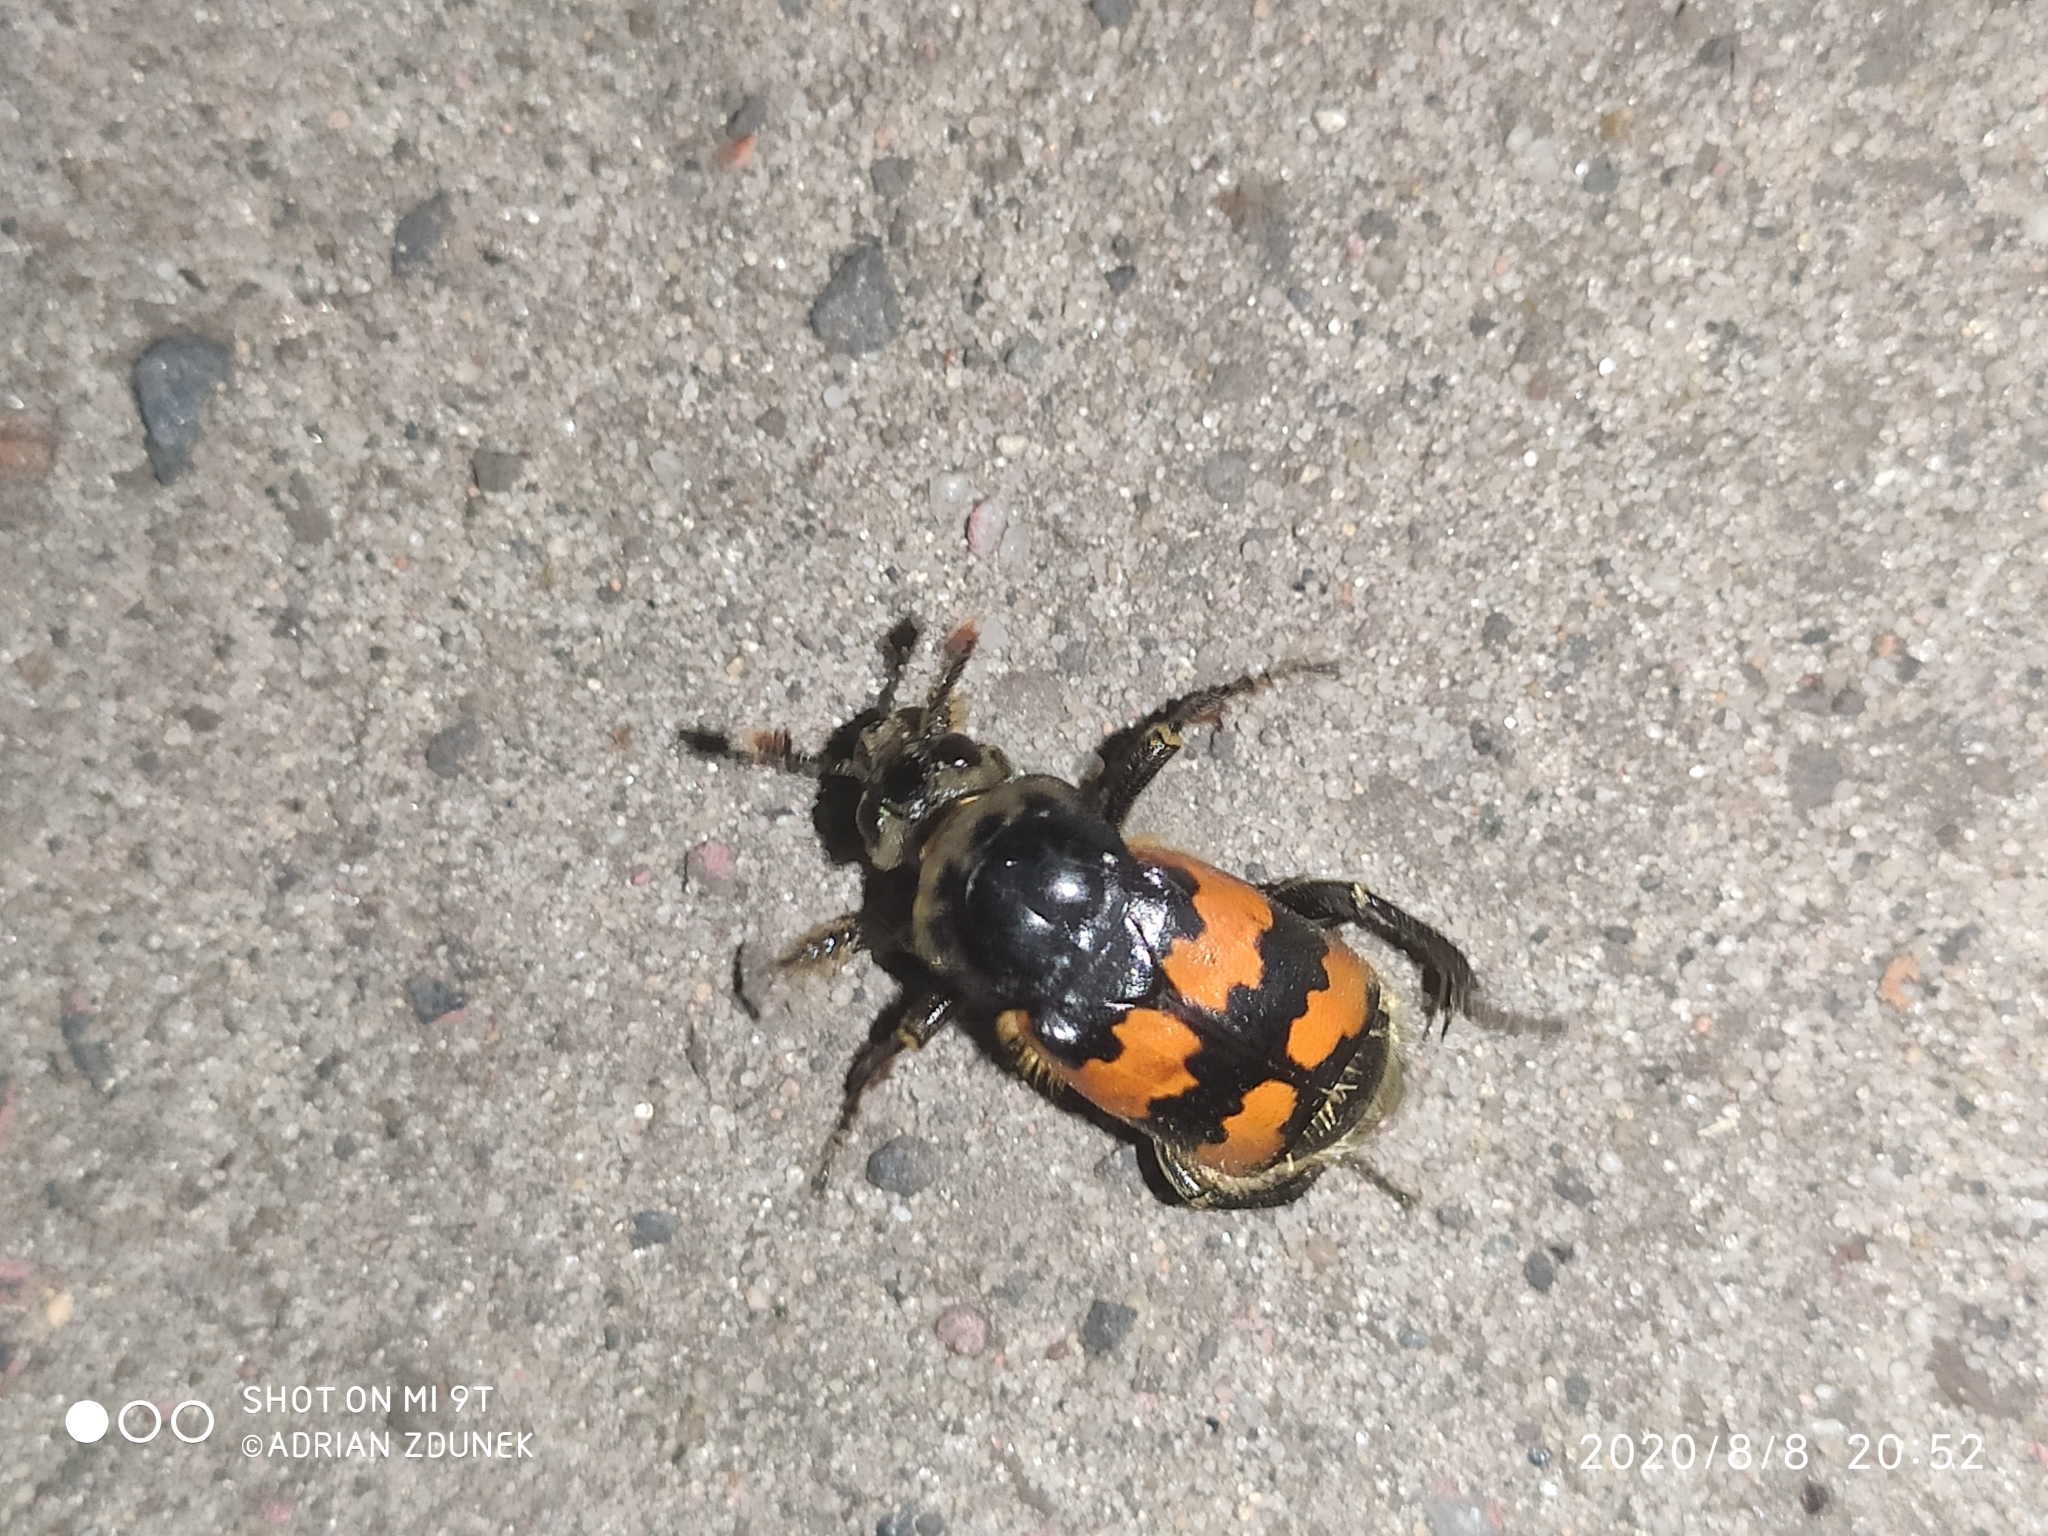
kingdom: Animalia
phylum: Arthropoda
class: Insecta
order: Coleoptera
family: Staphylinidae
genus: Nicrophorus
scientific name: Nicrophorus vespillo
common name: Common burying beetle
